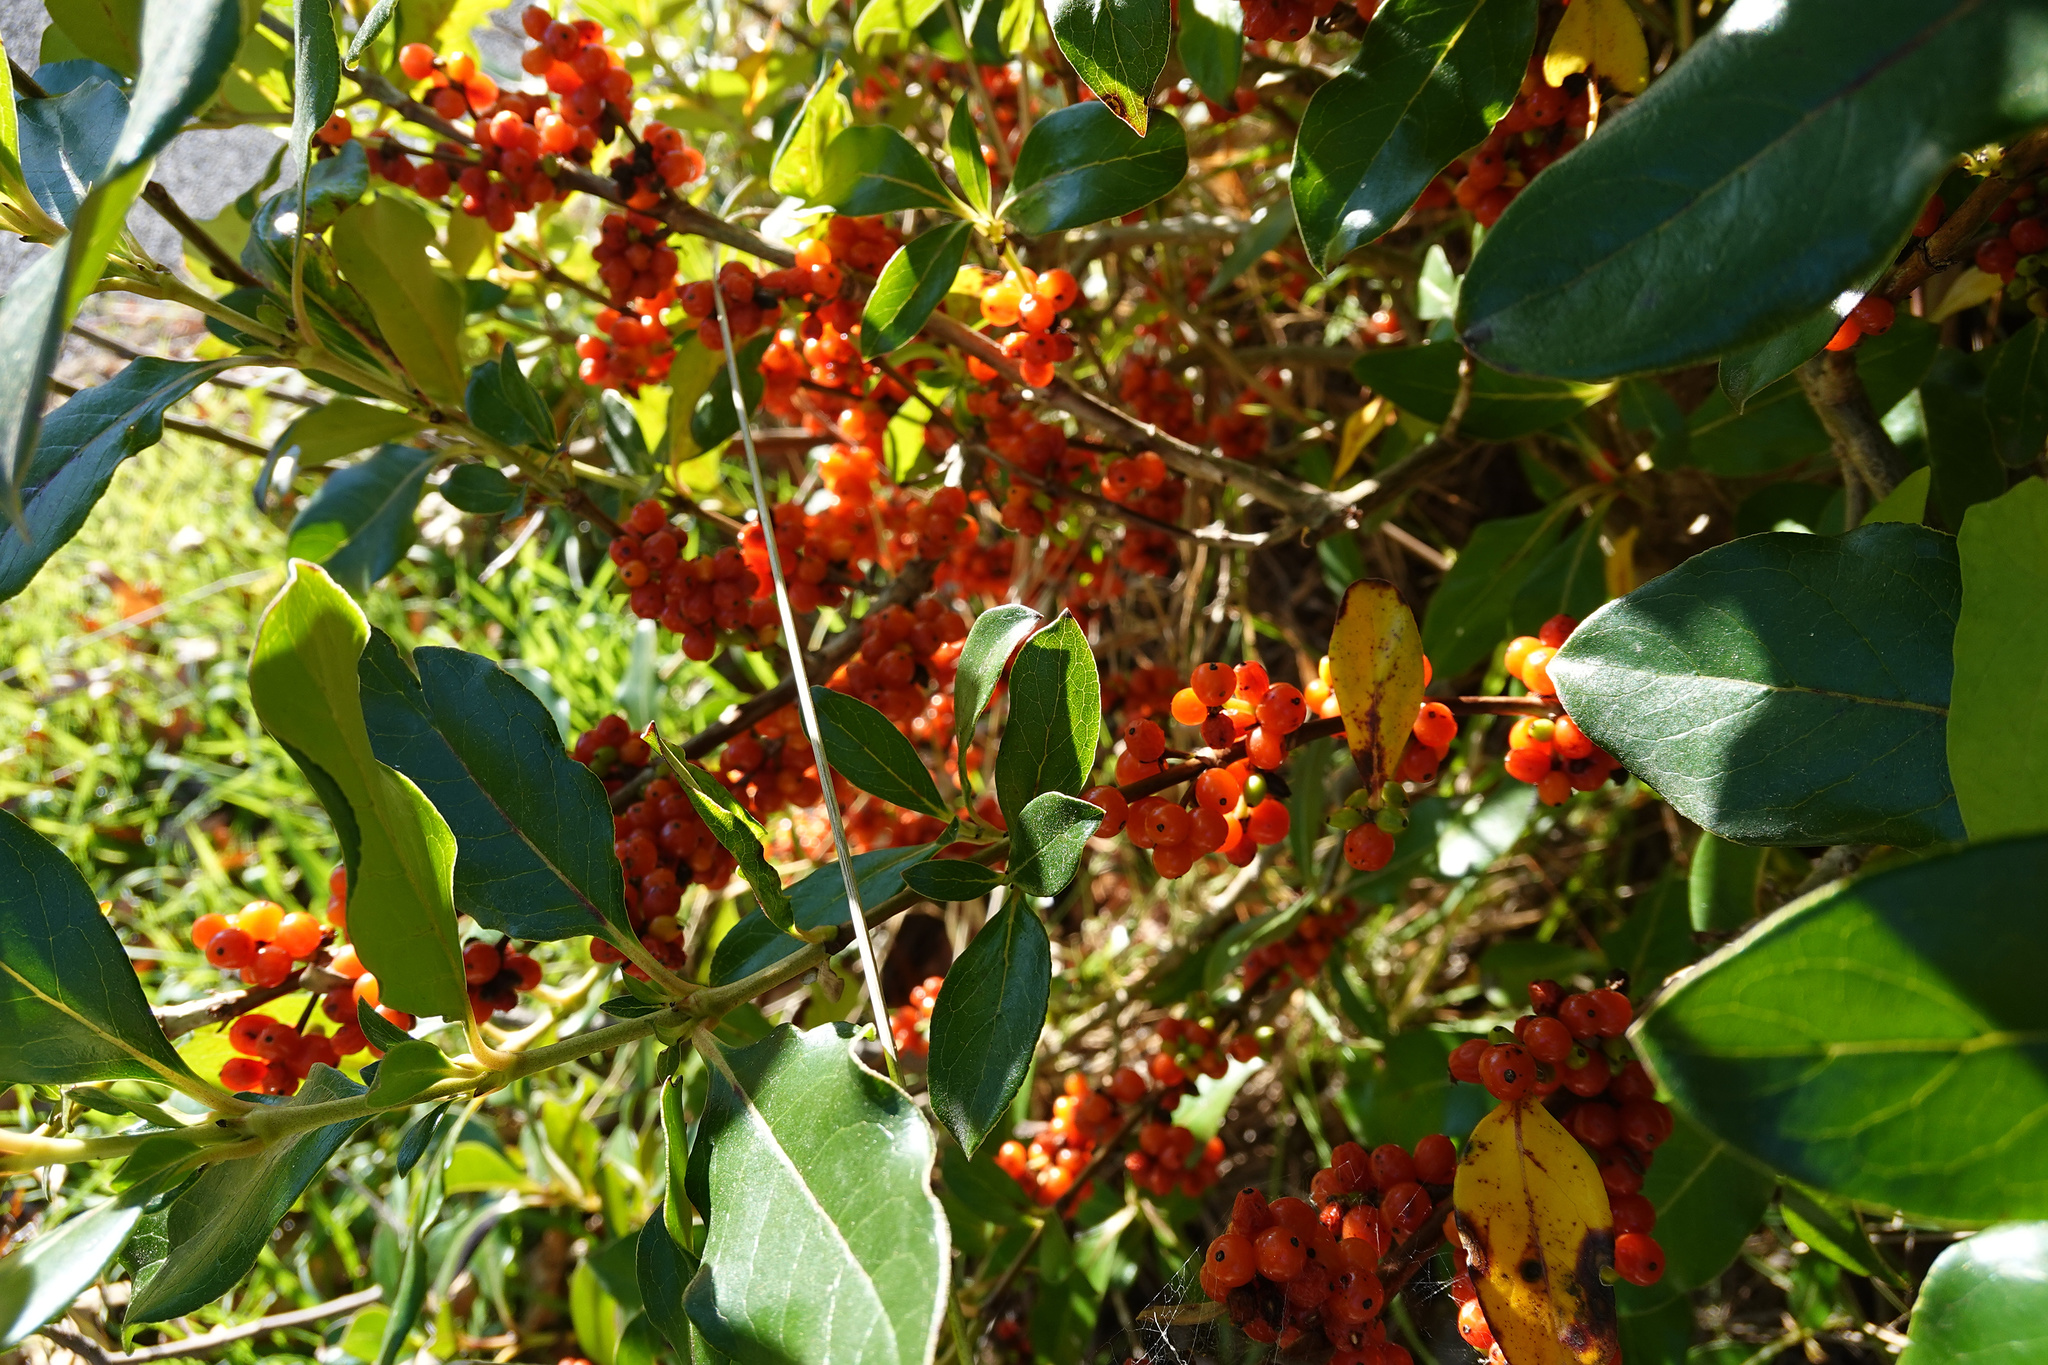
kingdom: Plantae
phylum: Tracheophyta
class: Magnoliopsida
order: Gentianales
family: Rubiaceae
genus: Coprosma
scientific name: Coprosma robusta
